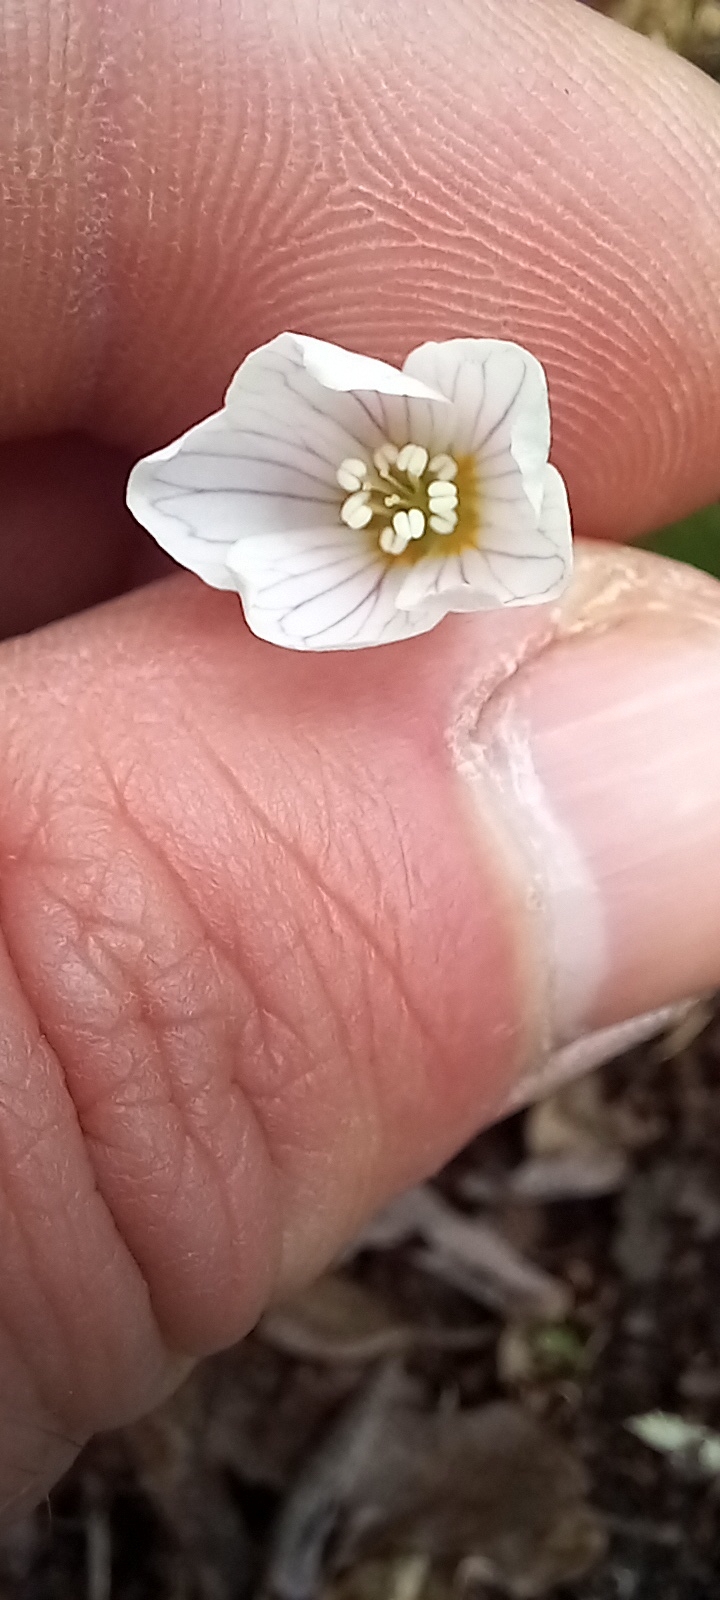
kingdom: Plantae
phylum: Tracheophyta
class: Magnoliopsida
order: Oxalidales
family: Oxalidaceae
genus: Oxalis
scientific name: Oxalis acetosella
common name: Wood-sorrel
